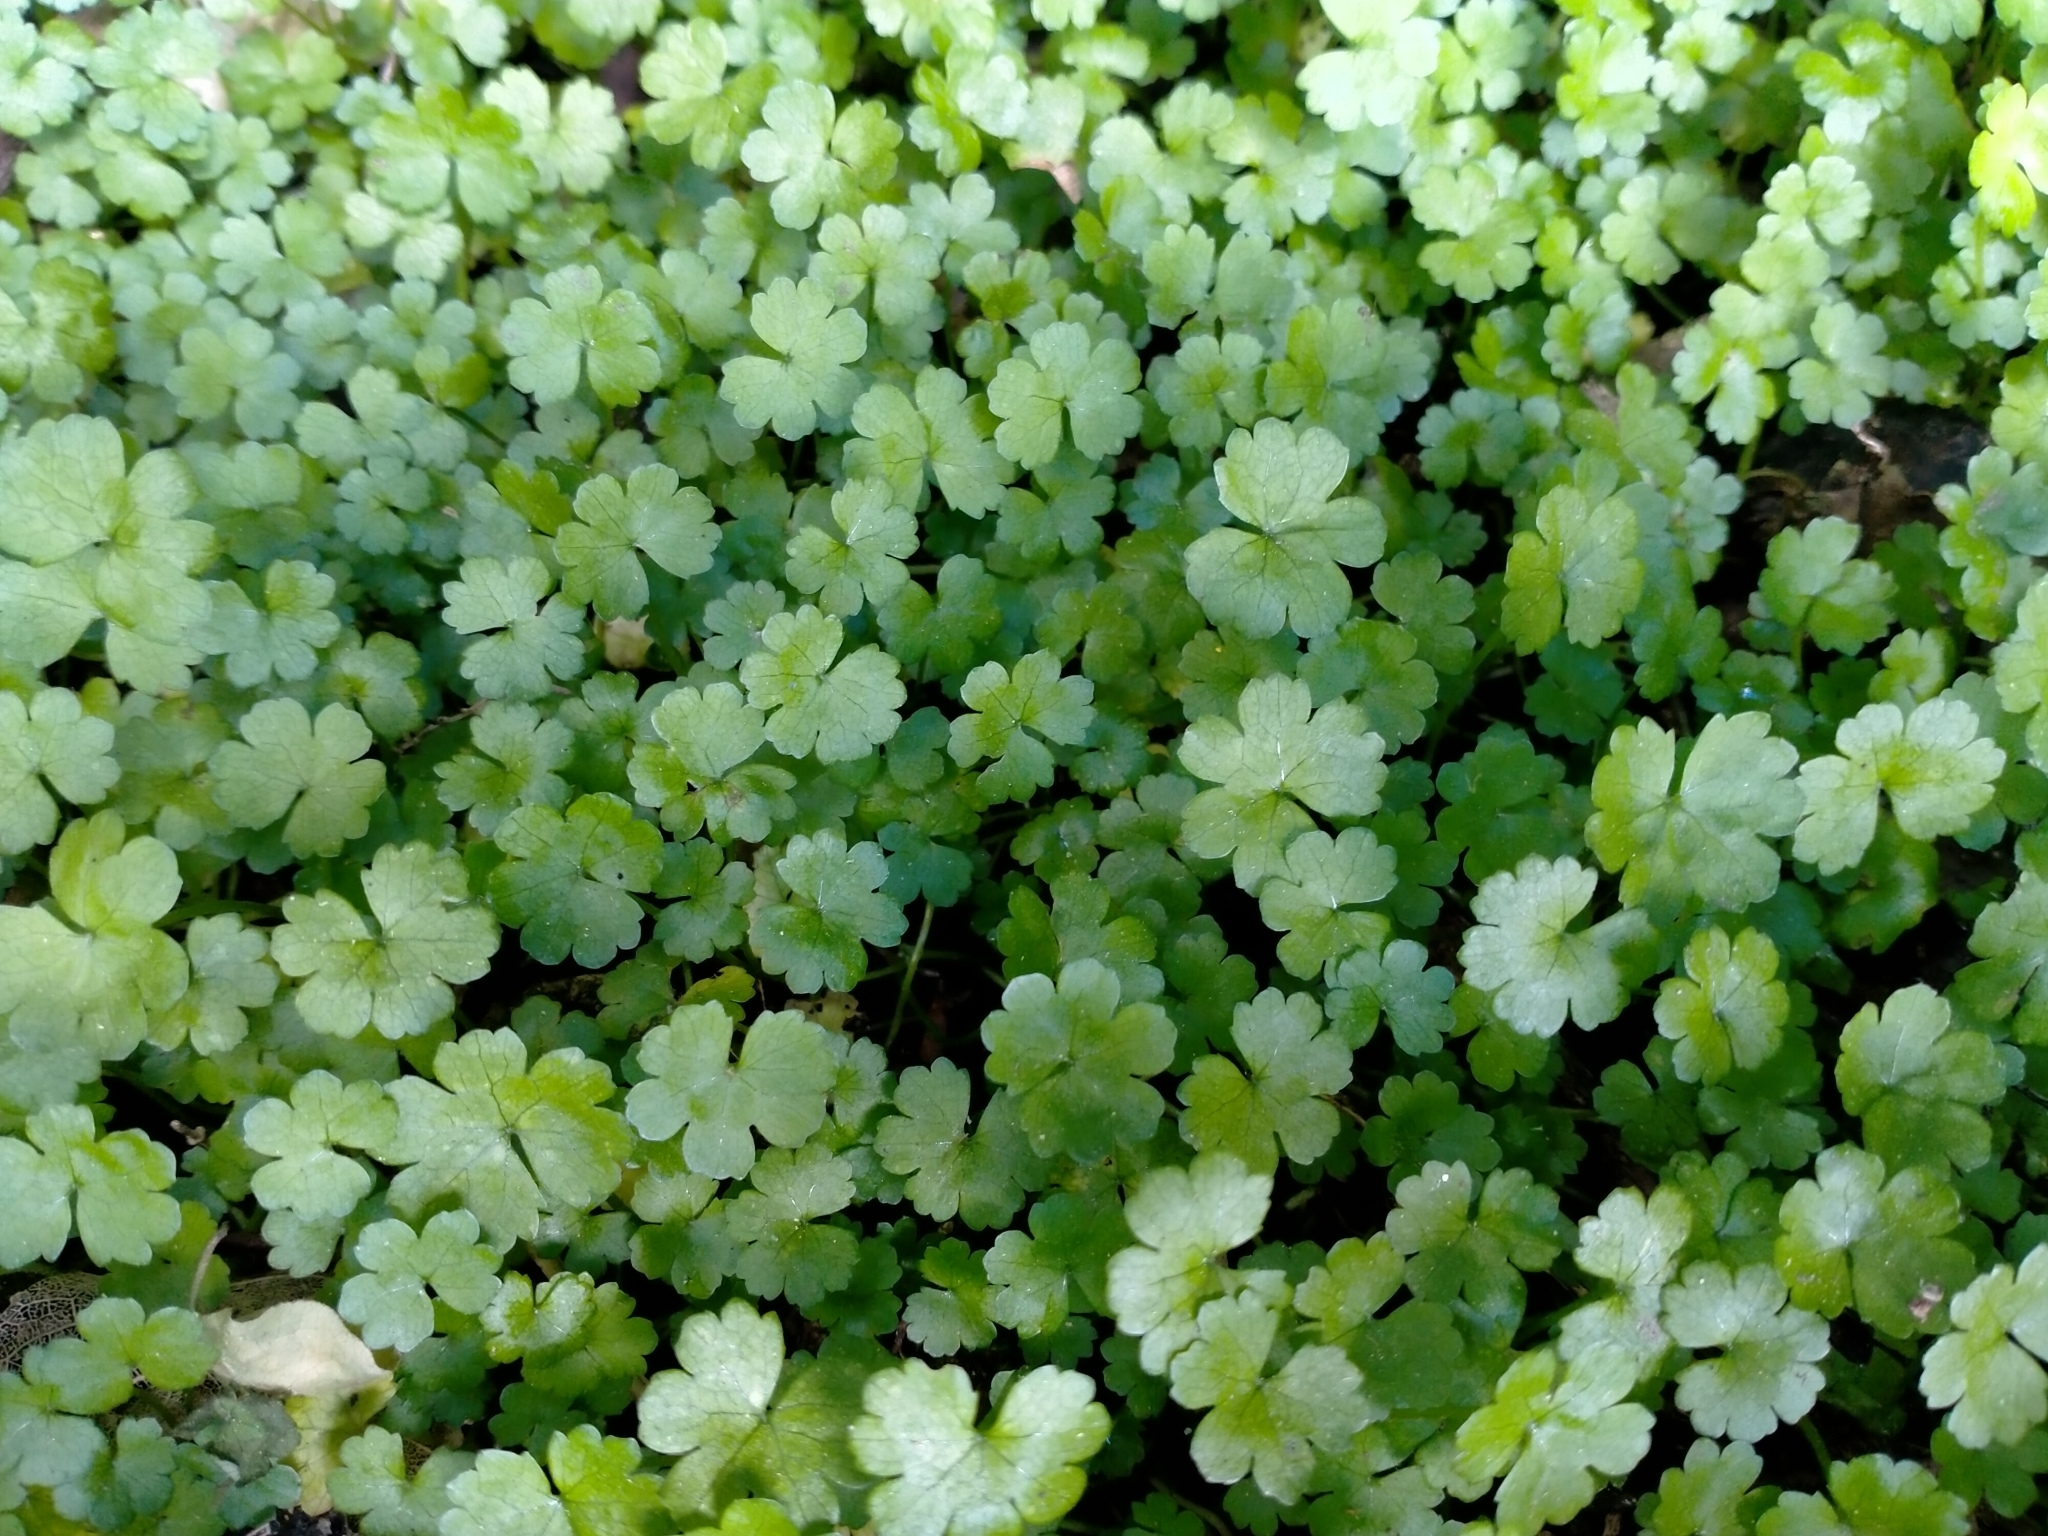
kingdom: Plantae
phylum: Tracheophyta
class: Magnoliopsida
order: Apiales
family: Araliaceae
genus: Hydrocotyle
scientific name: Hydrocotyle heteromeria
